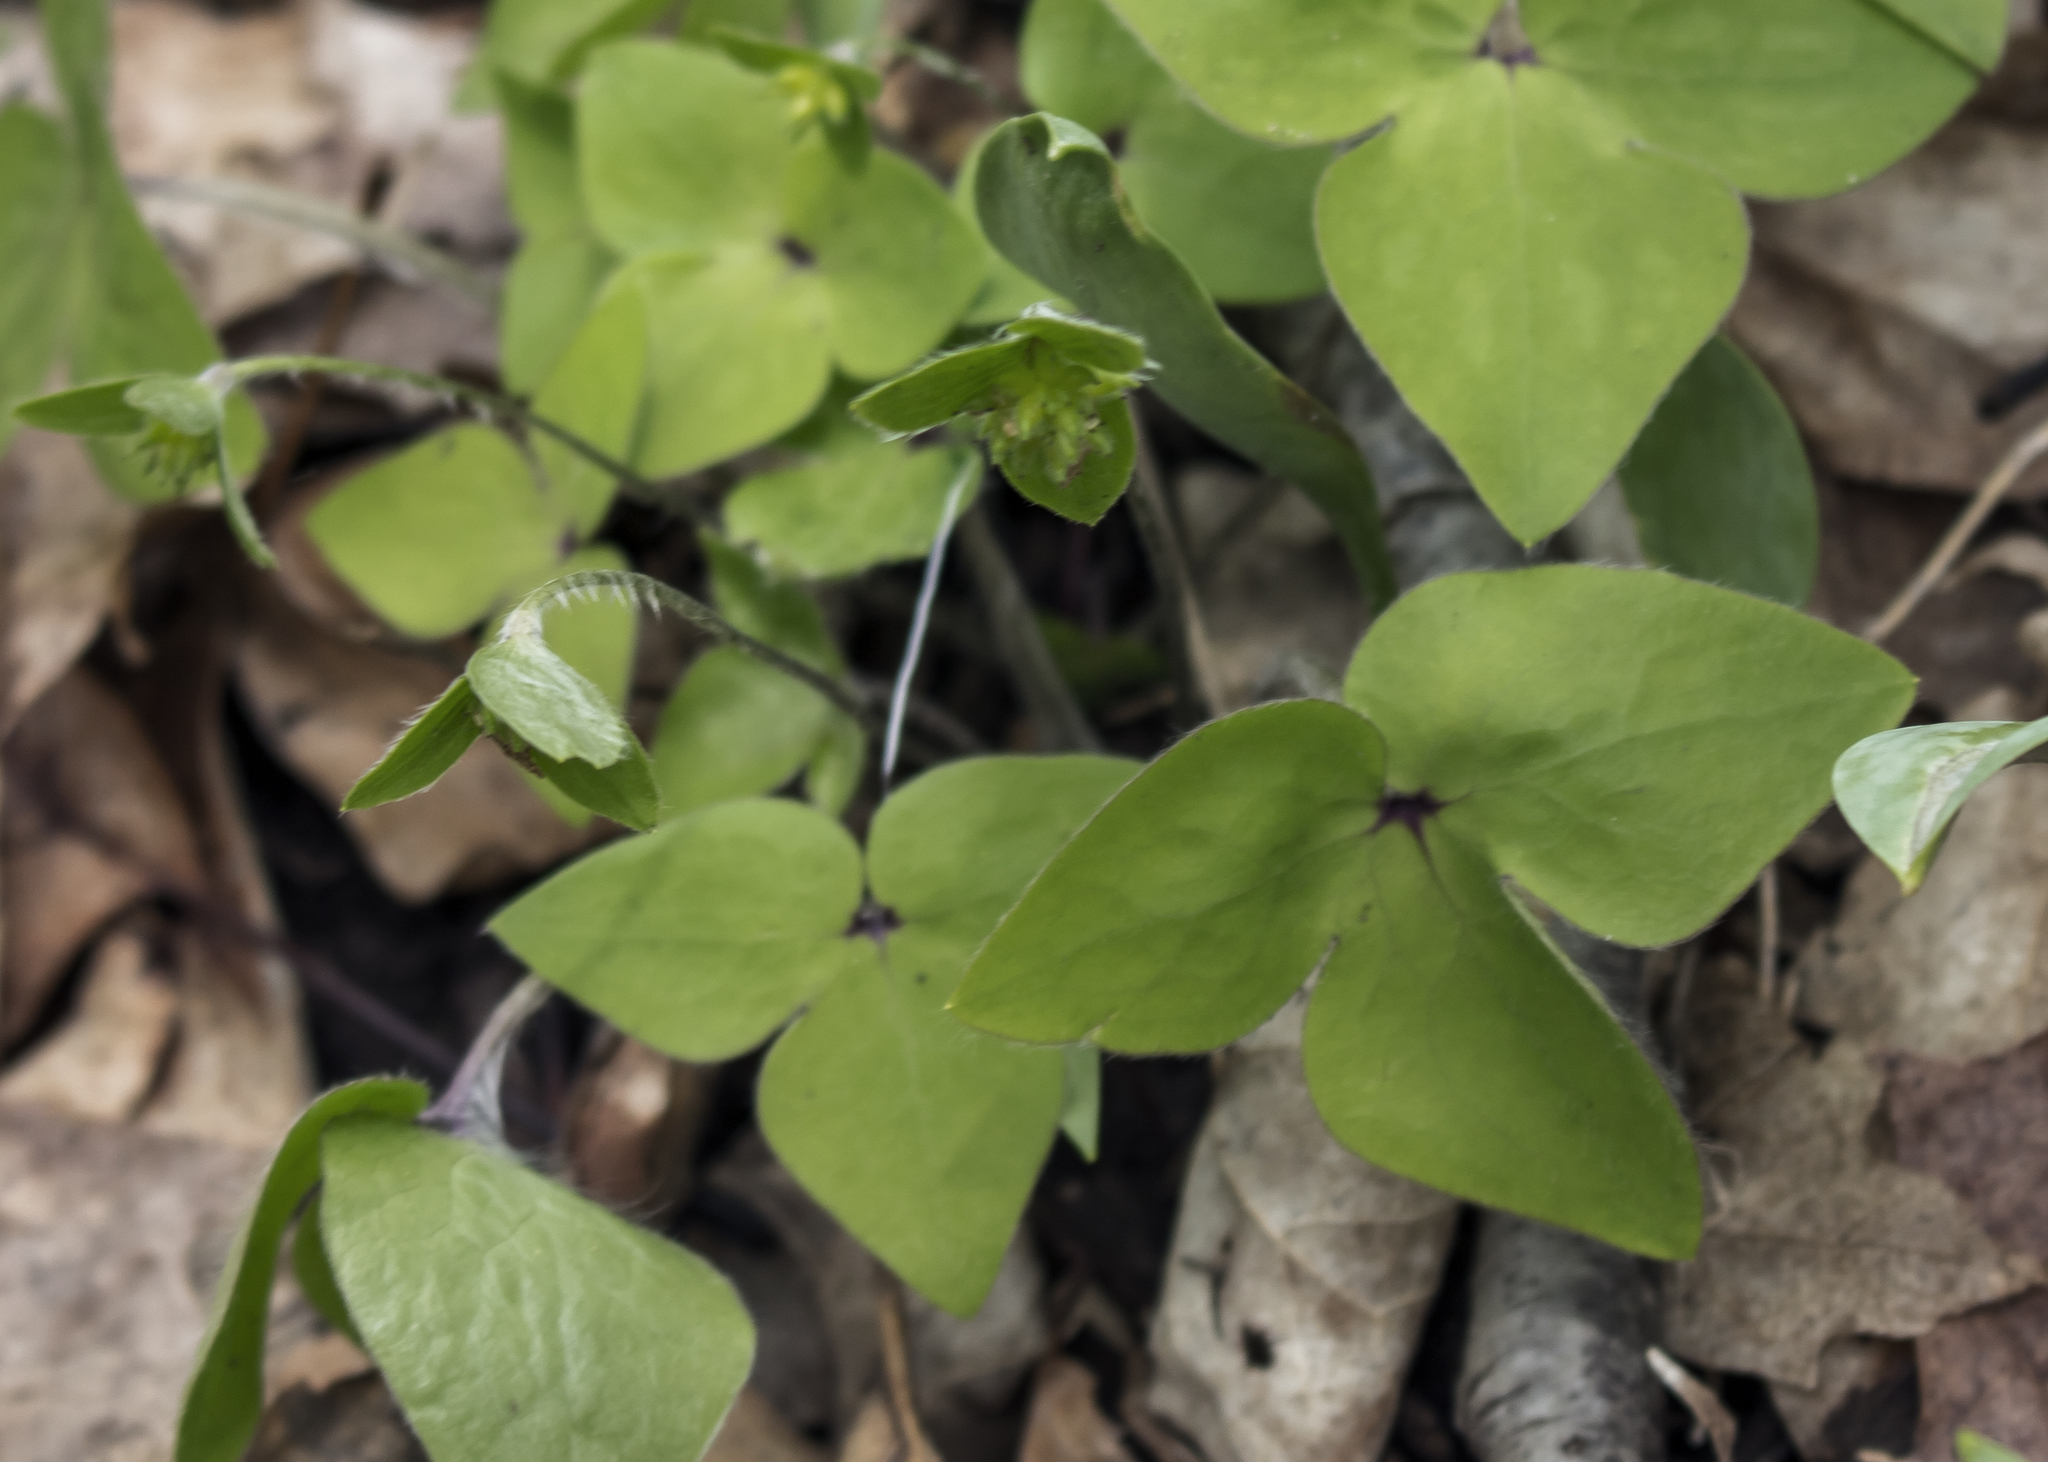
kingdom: Plantae
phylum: Tracheophyta
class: Magnoliopsida
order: Ranunculales
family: Ranunculaceae
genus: Hepatica
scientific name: Hepatica acutiloba
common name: Sharp-lobed hepatica
